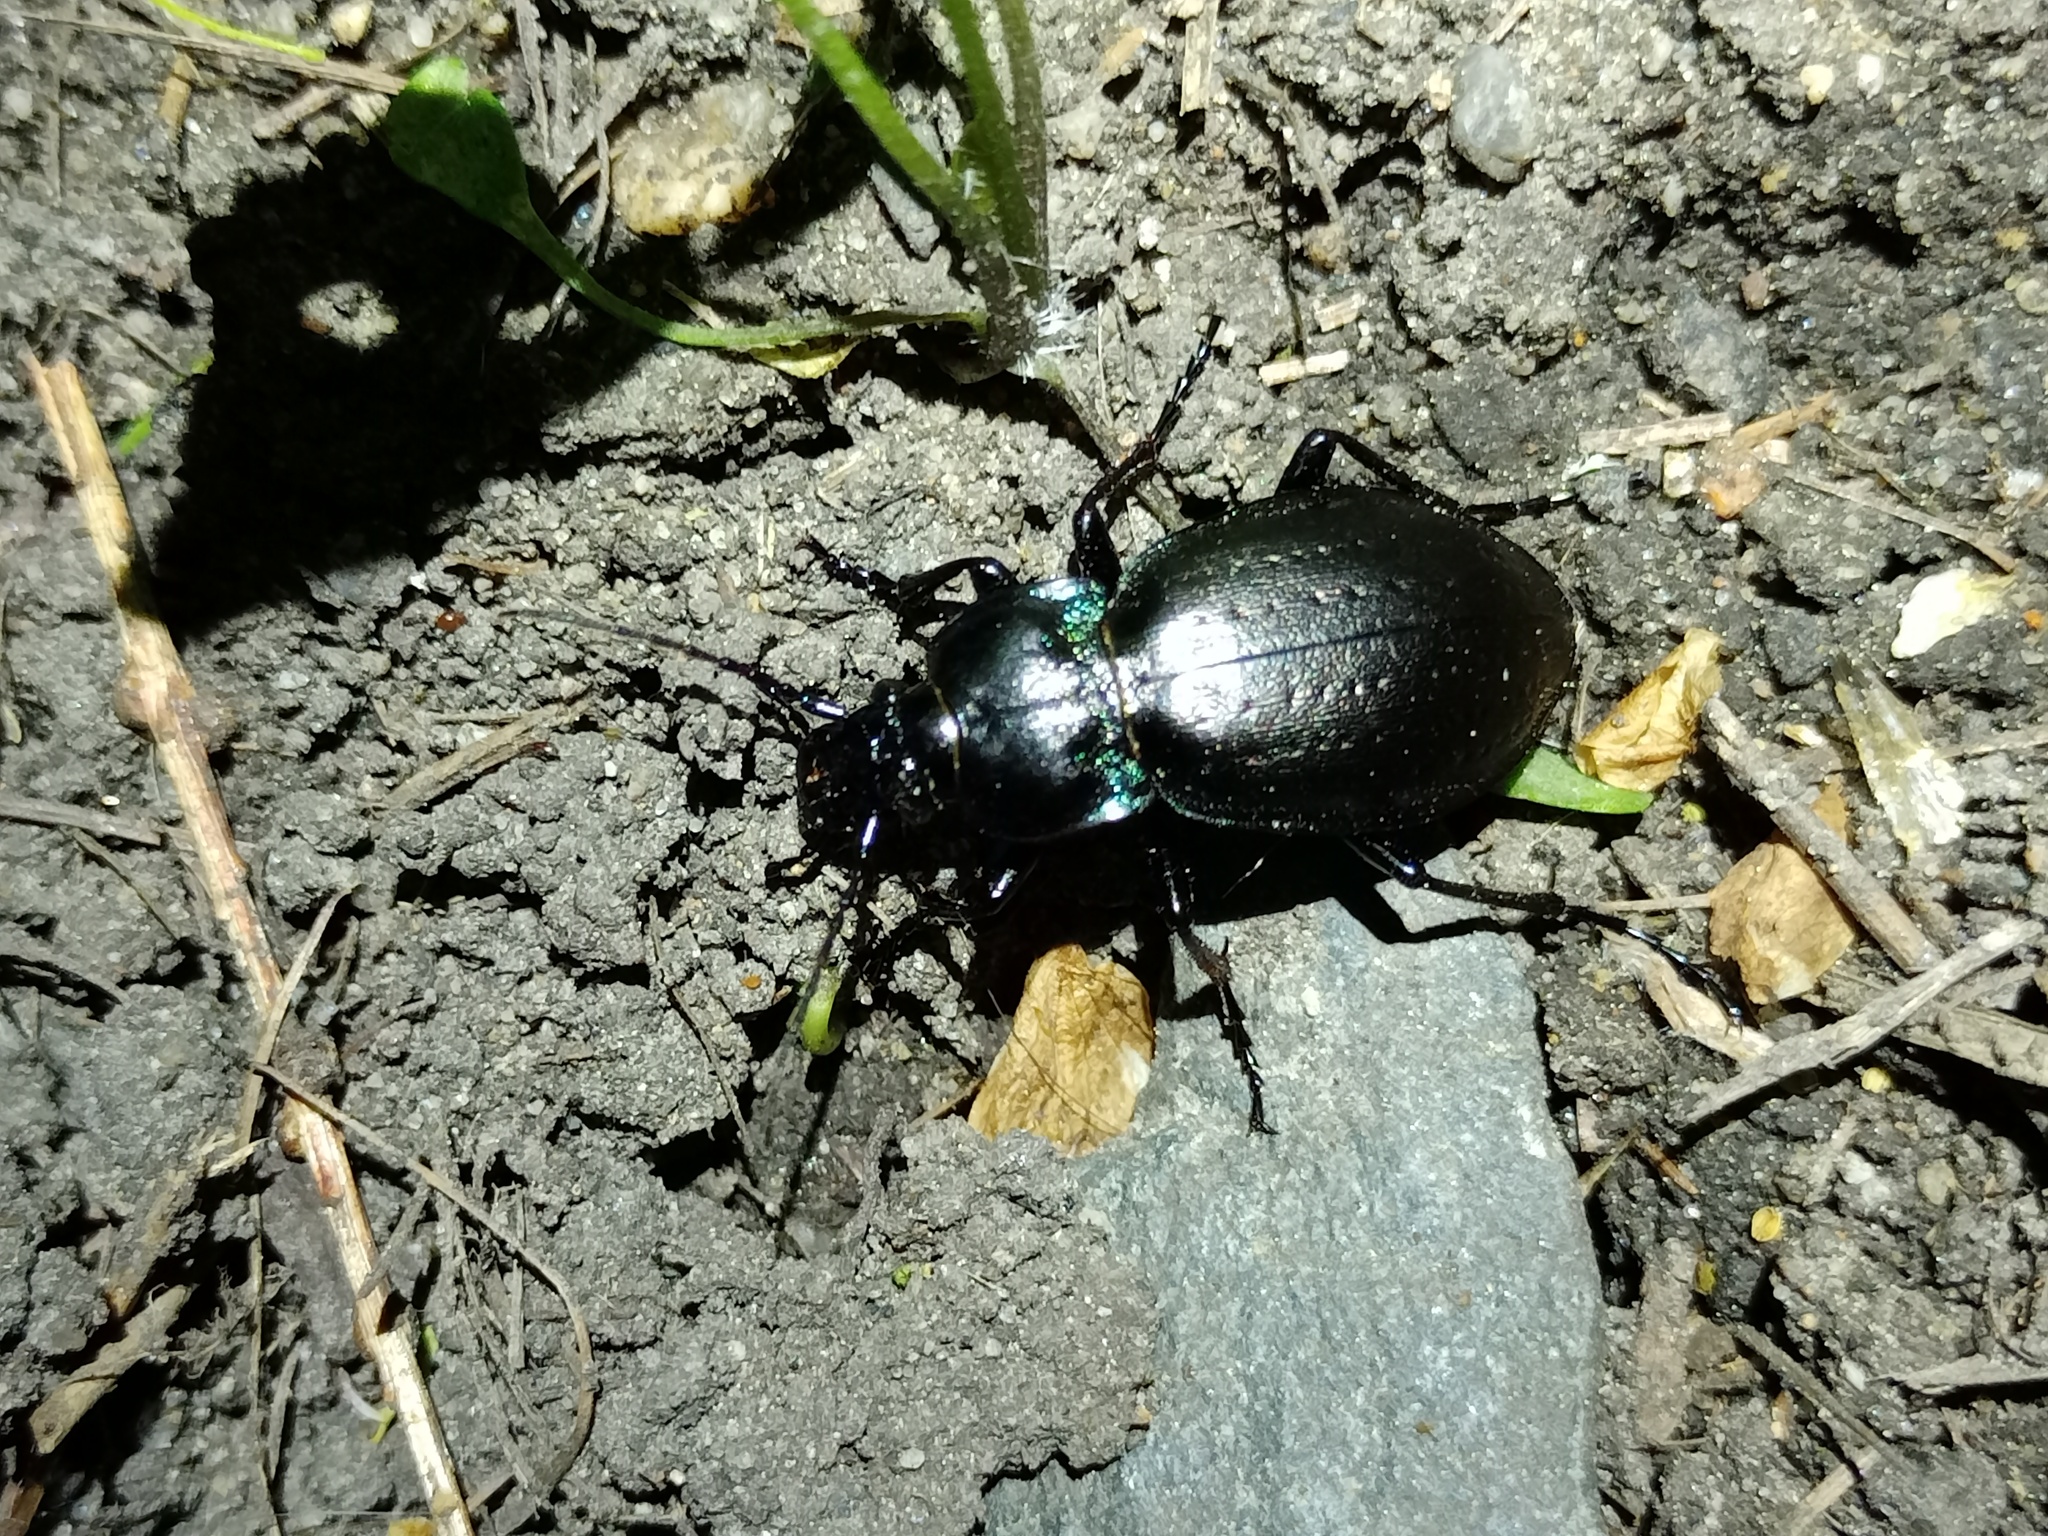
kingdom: Animalia
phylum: Arthropoda
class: Insecta
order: Coleoptera
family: Carabidae
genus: Carabus
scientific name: Carabus nemoralis
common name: European ground beetle
